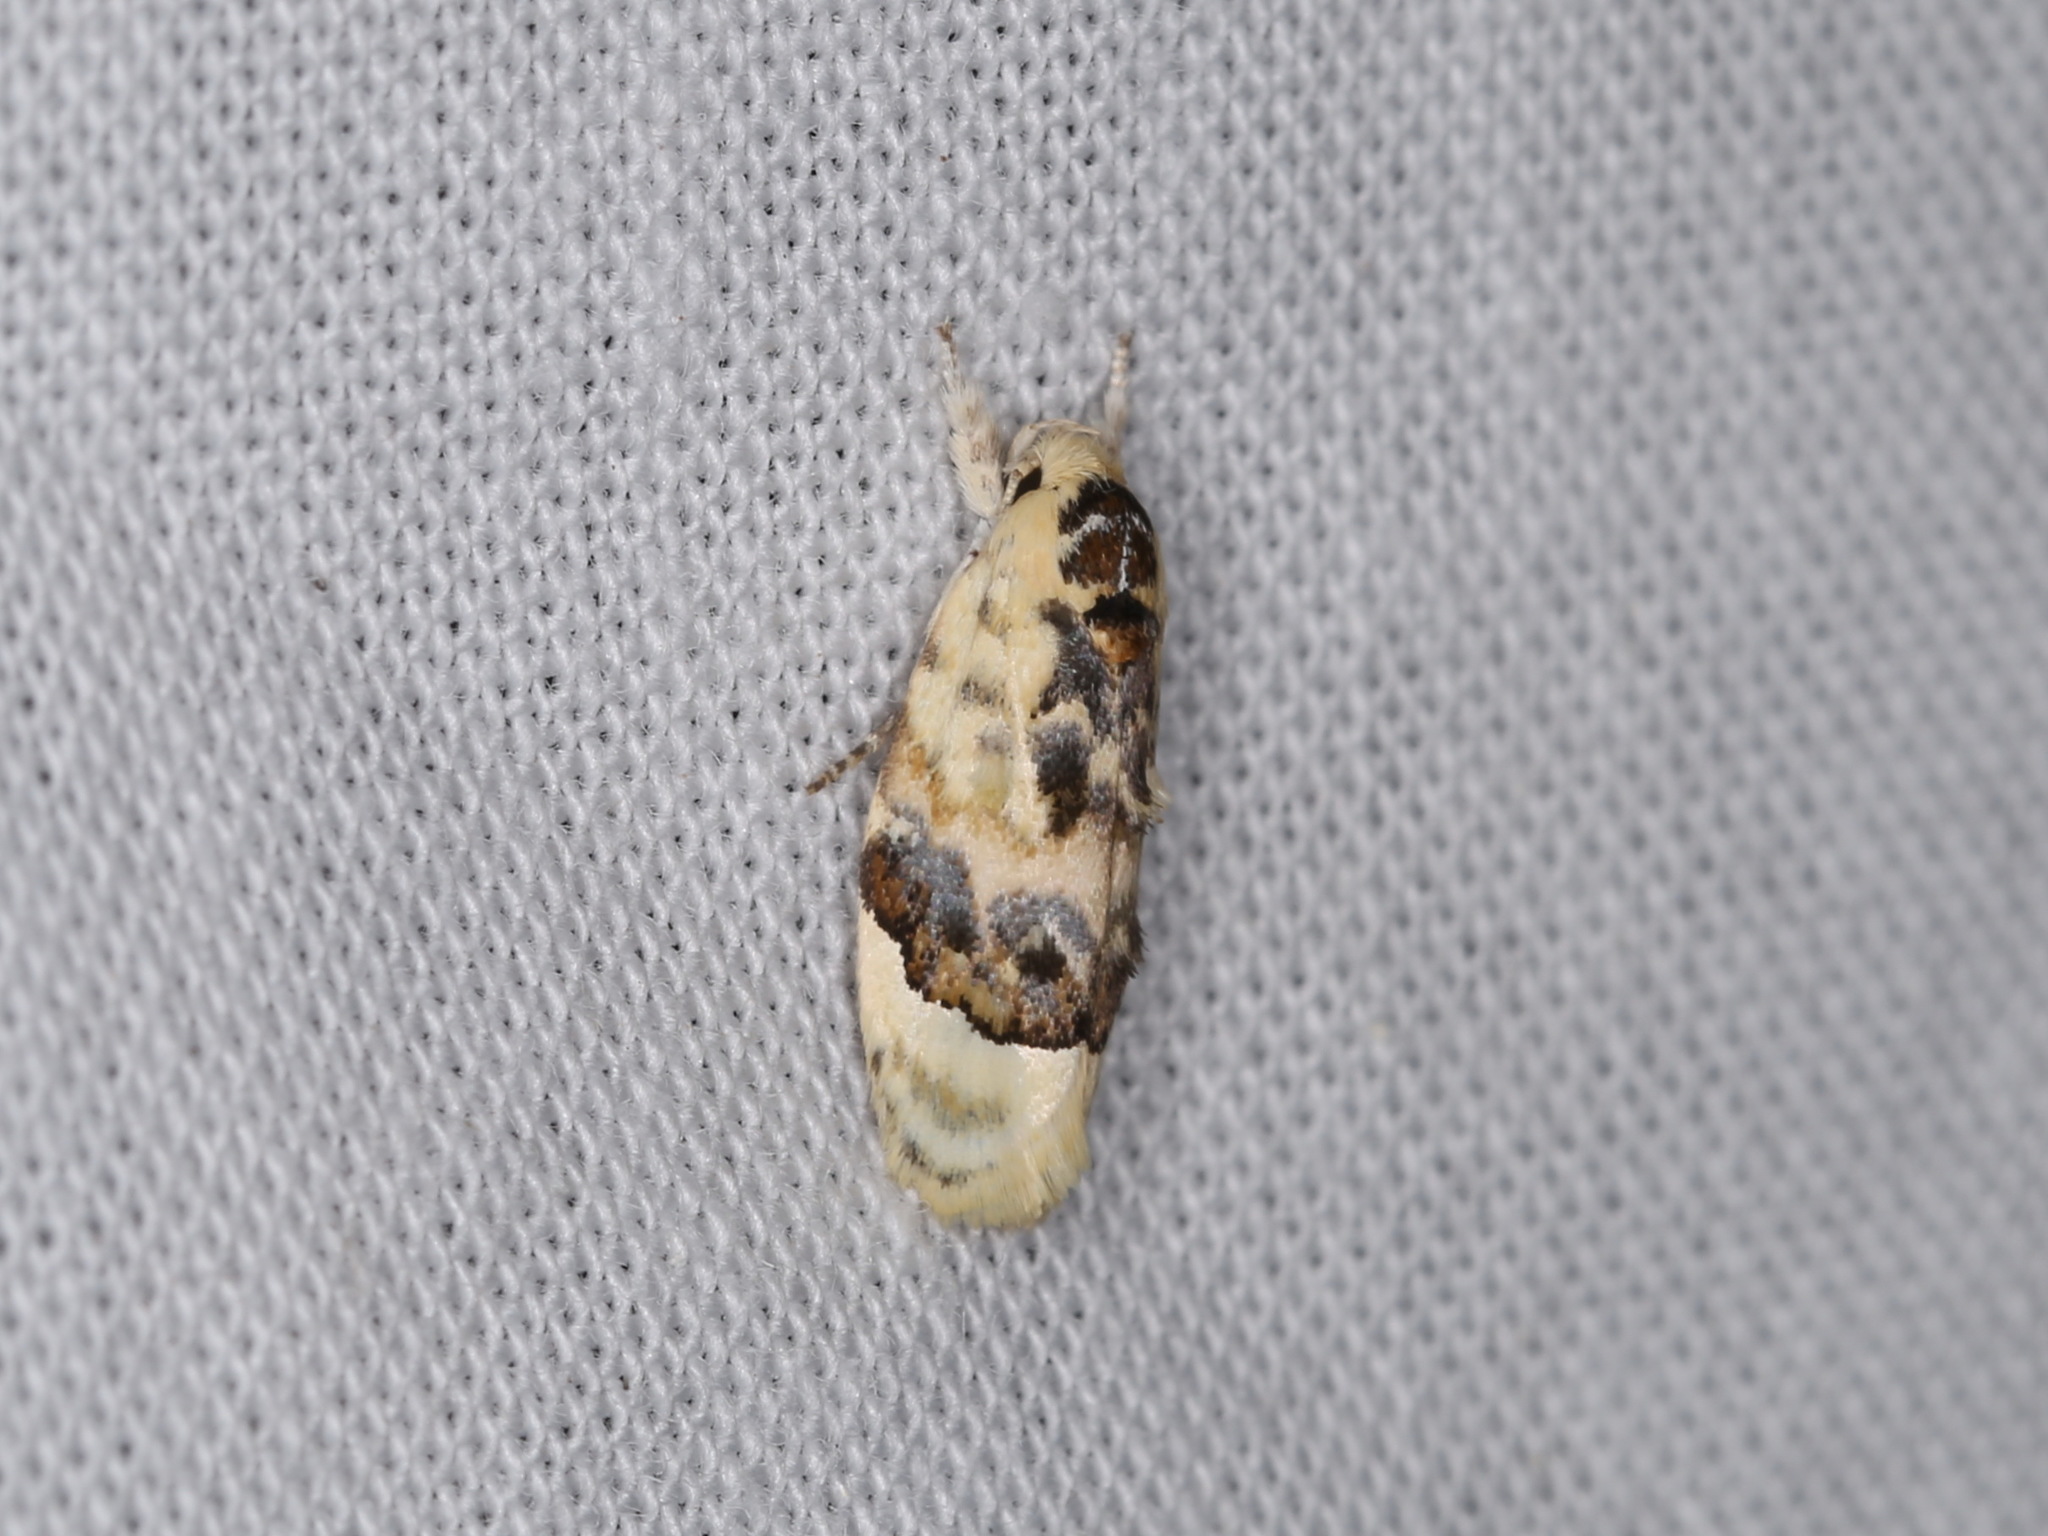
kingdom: Animalia
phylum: Arthropoda
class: Insecta
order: Lepidoptera
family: Oecophoridae
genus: Piloprepes
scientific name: Piloprepes antidoxa
